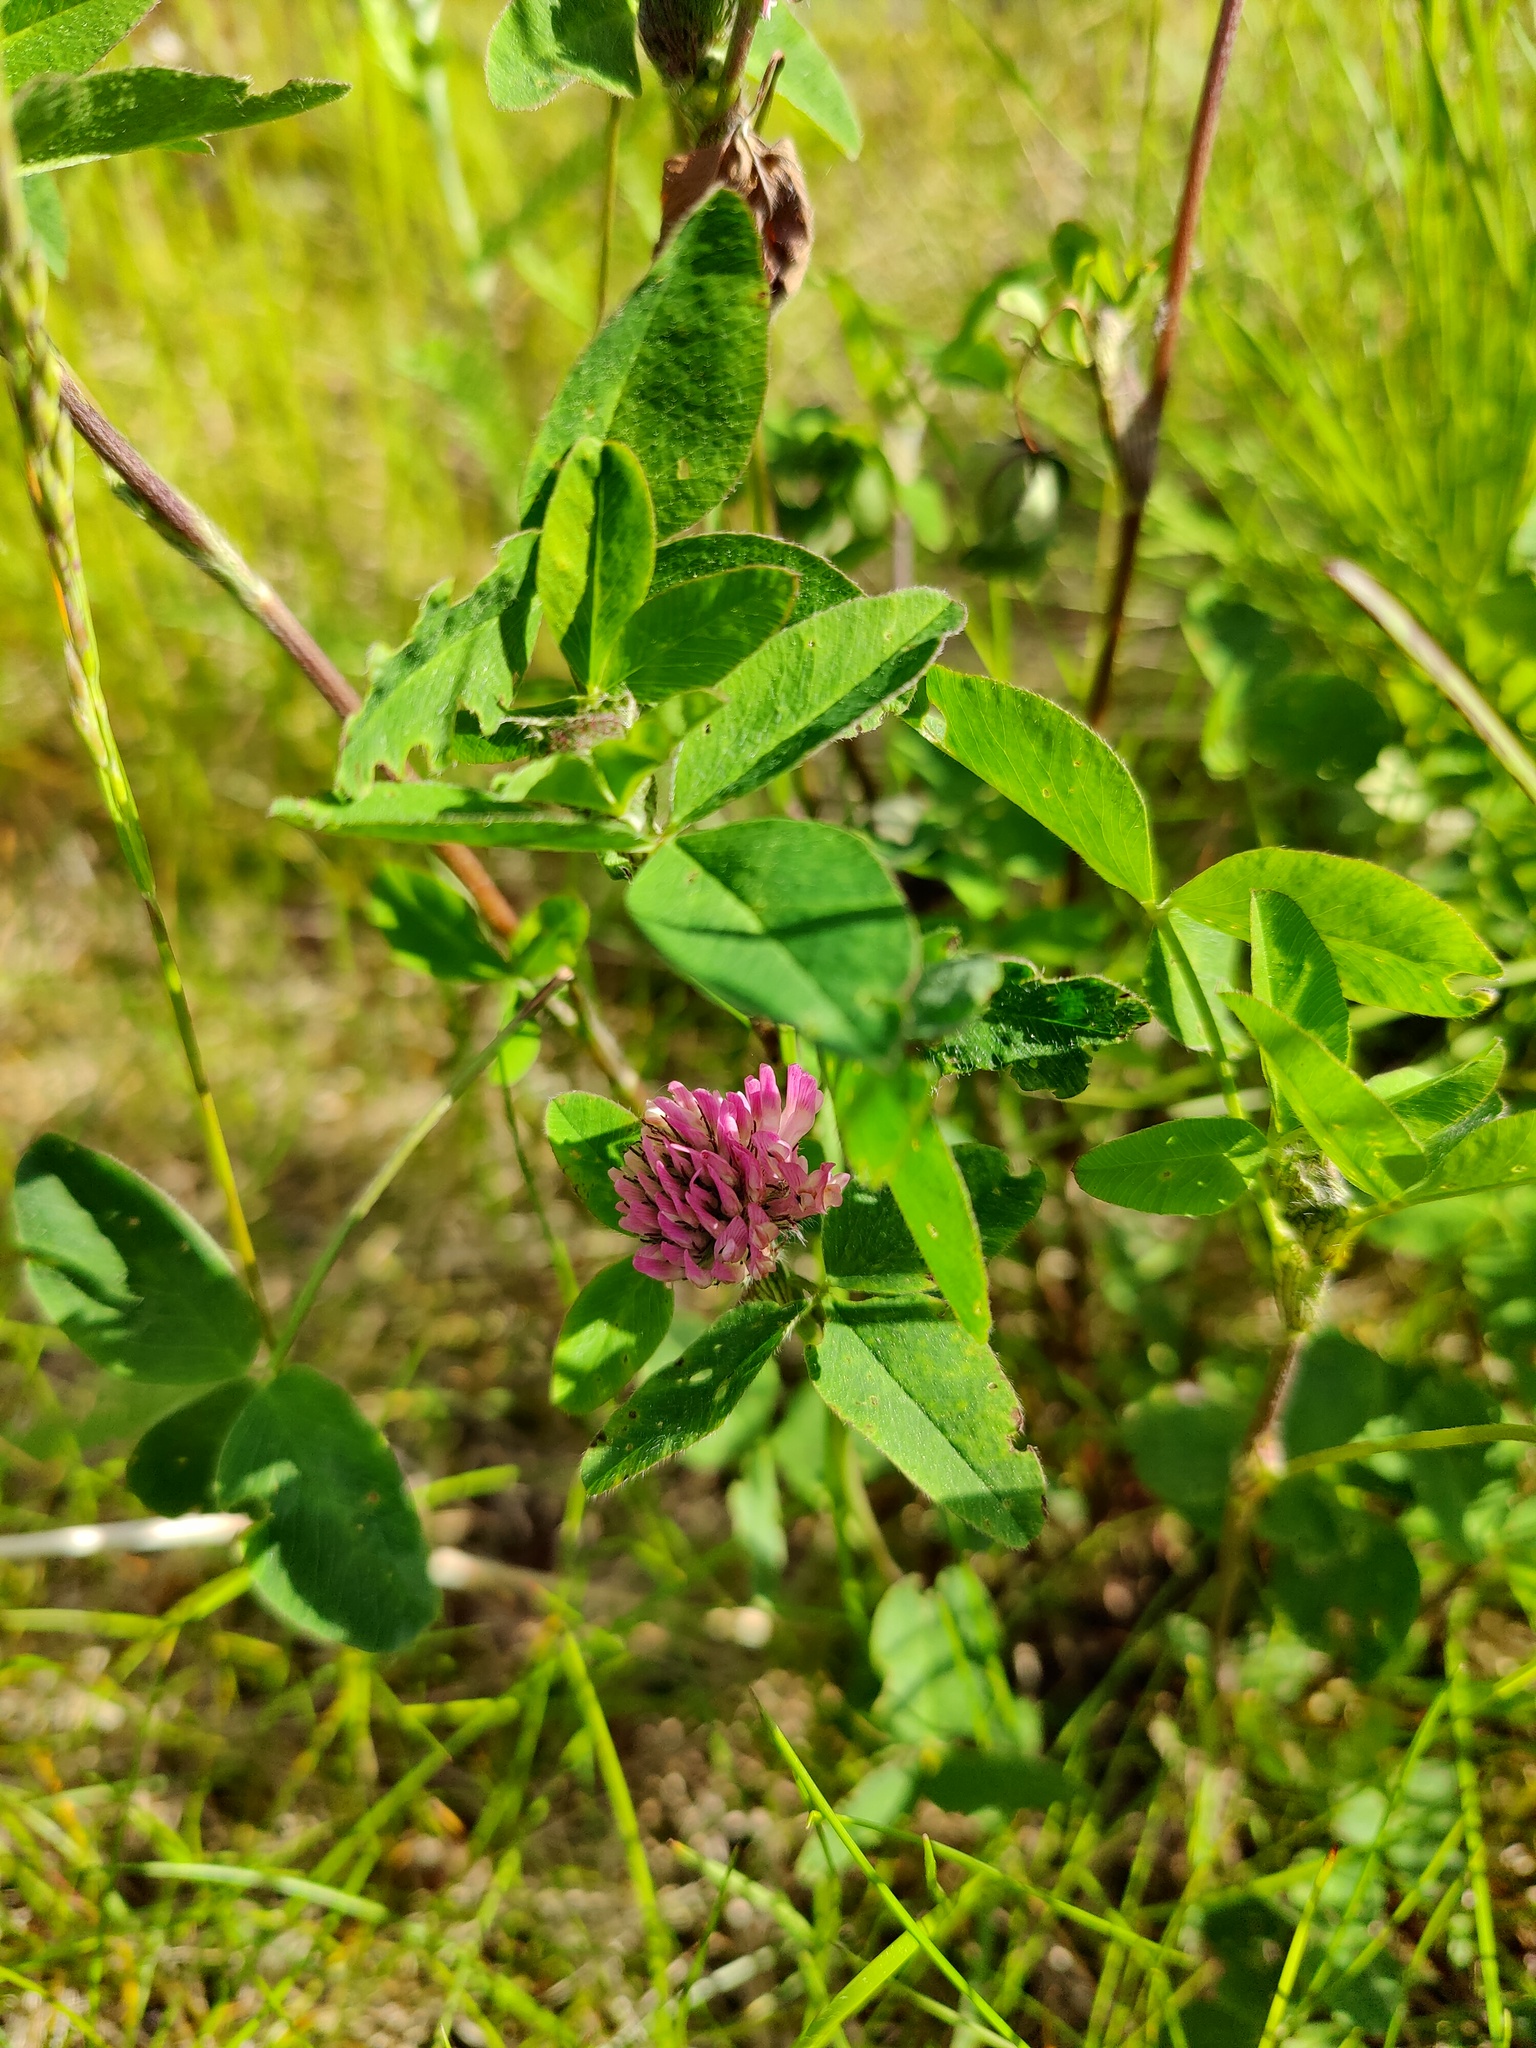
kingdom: Plantae
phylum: Tracheophyta
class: Magnoliopsida
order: Fabales
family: Fabaceae
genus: Trifolium
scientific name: Trifolium pratense
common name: Red clover
